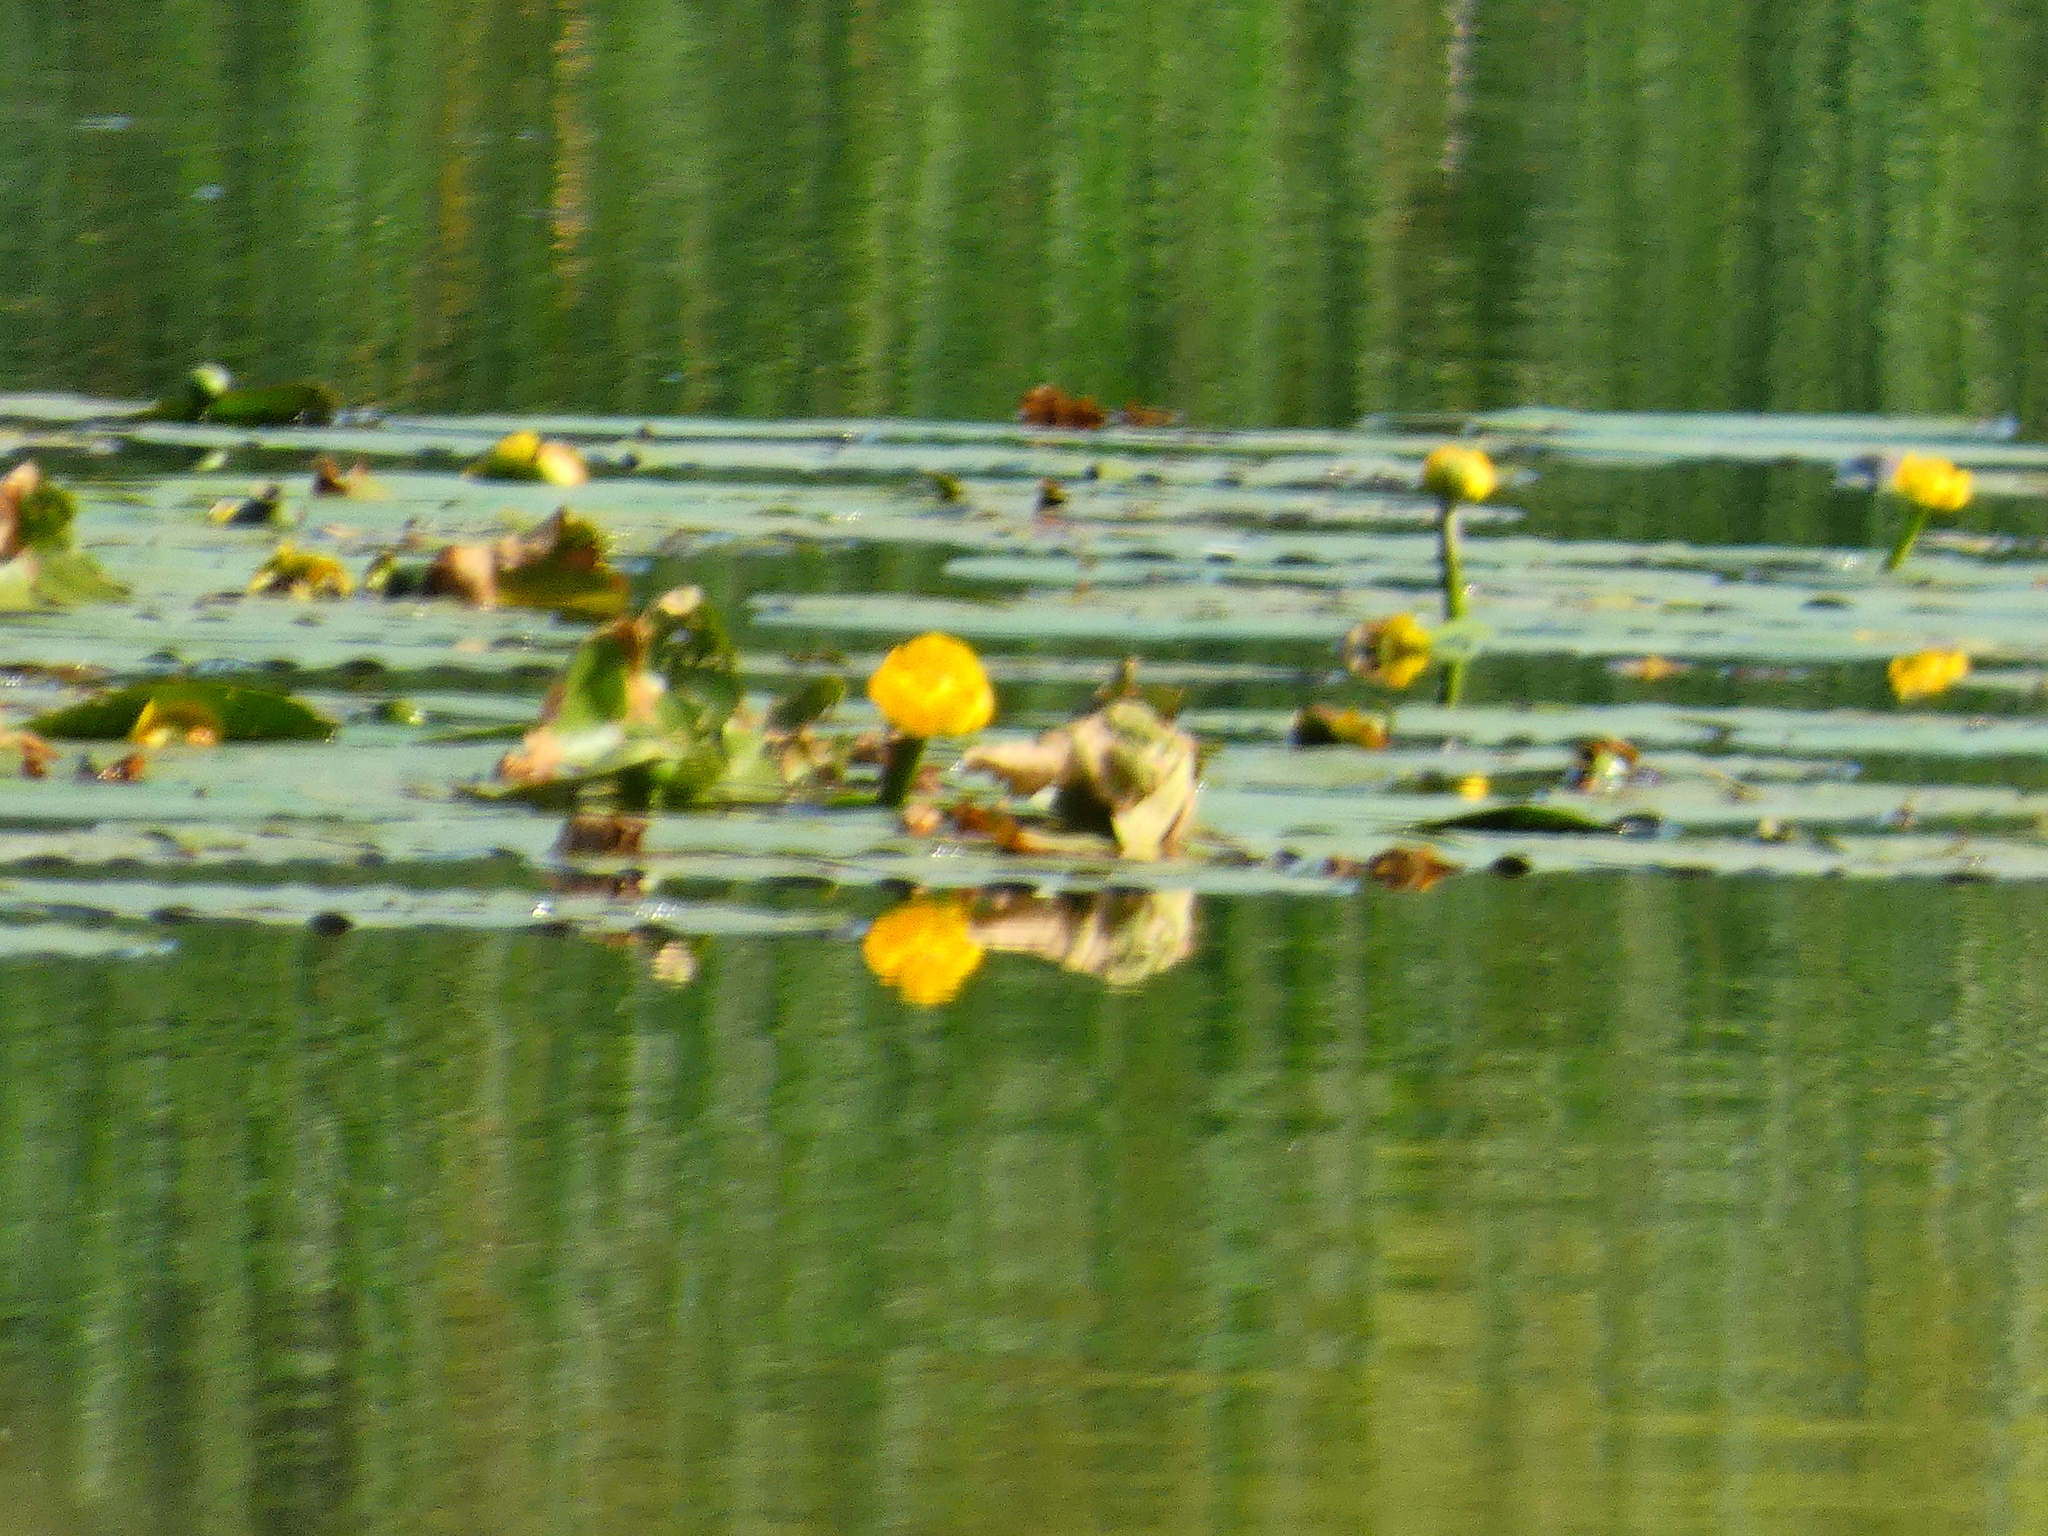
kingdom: Plantae
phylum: Tracheophyta
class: Magnoliopsida
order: Nymphaeales
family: Nymphaeaceae
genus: Nuphar
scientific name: Nuphar lutea
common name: Yellow water-lily
